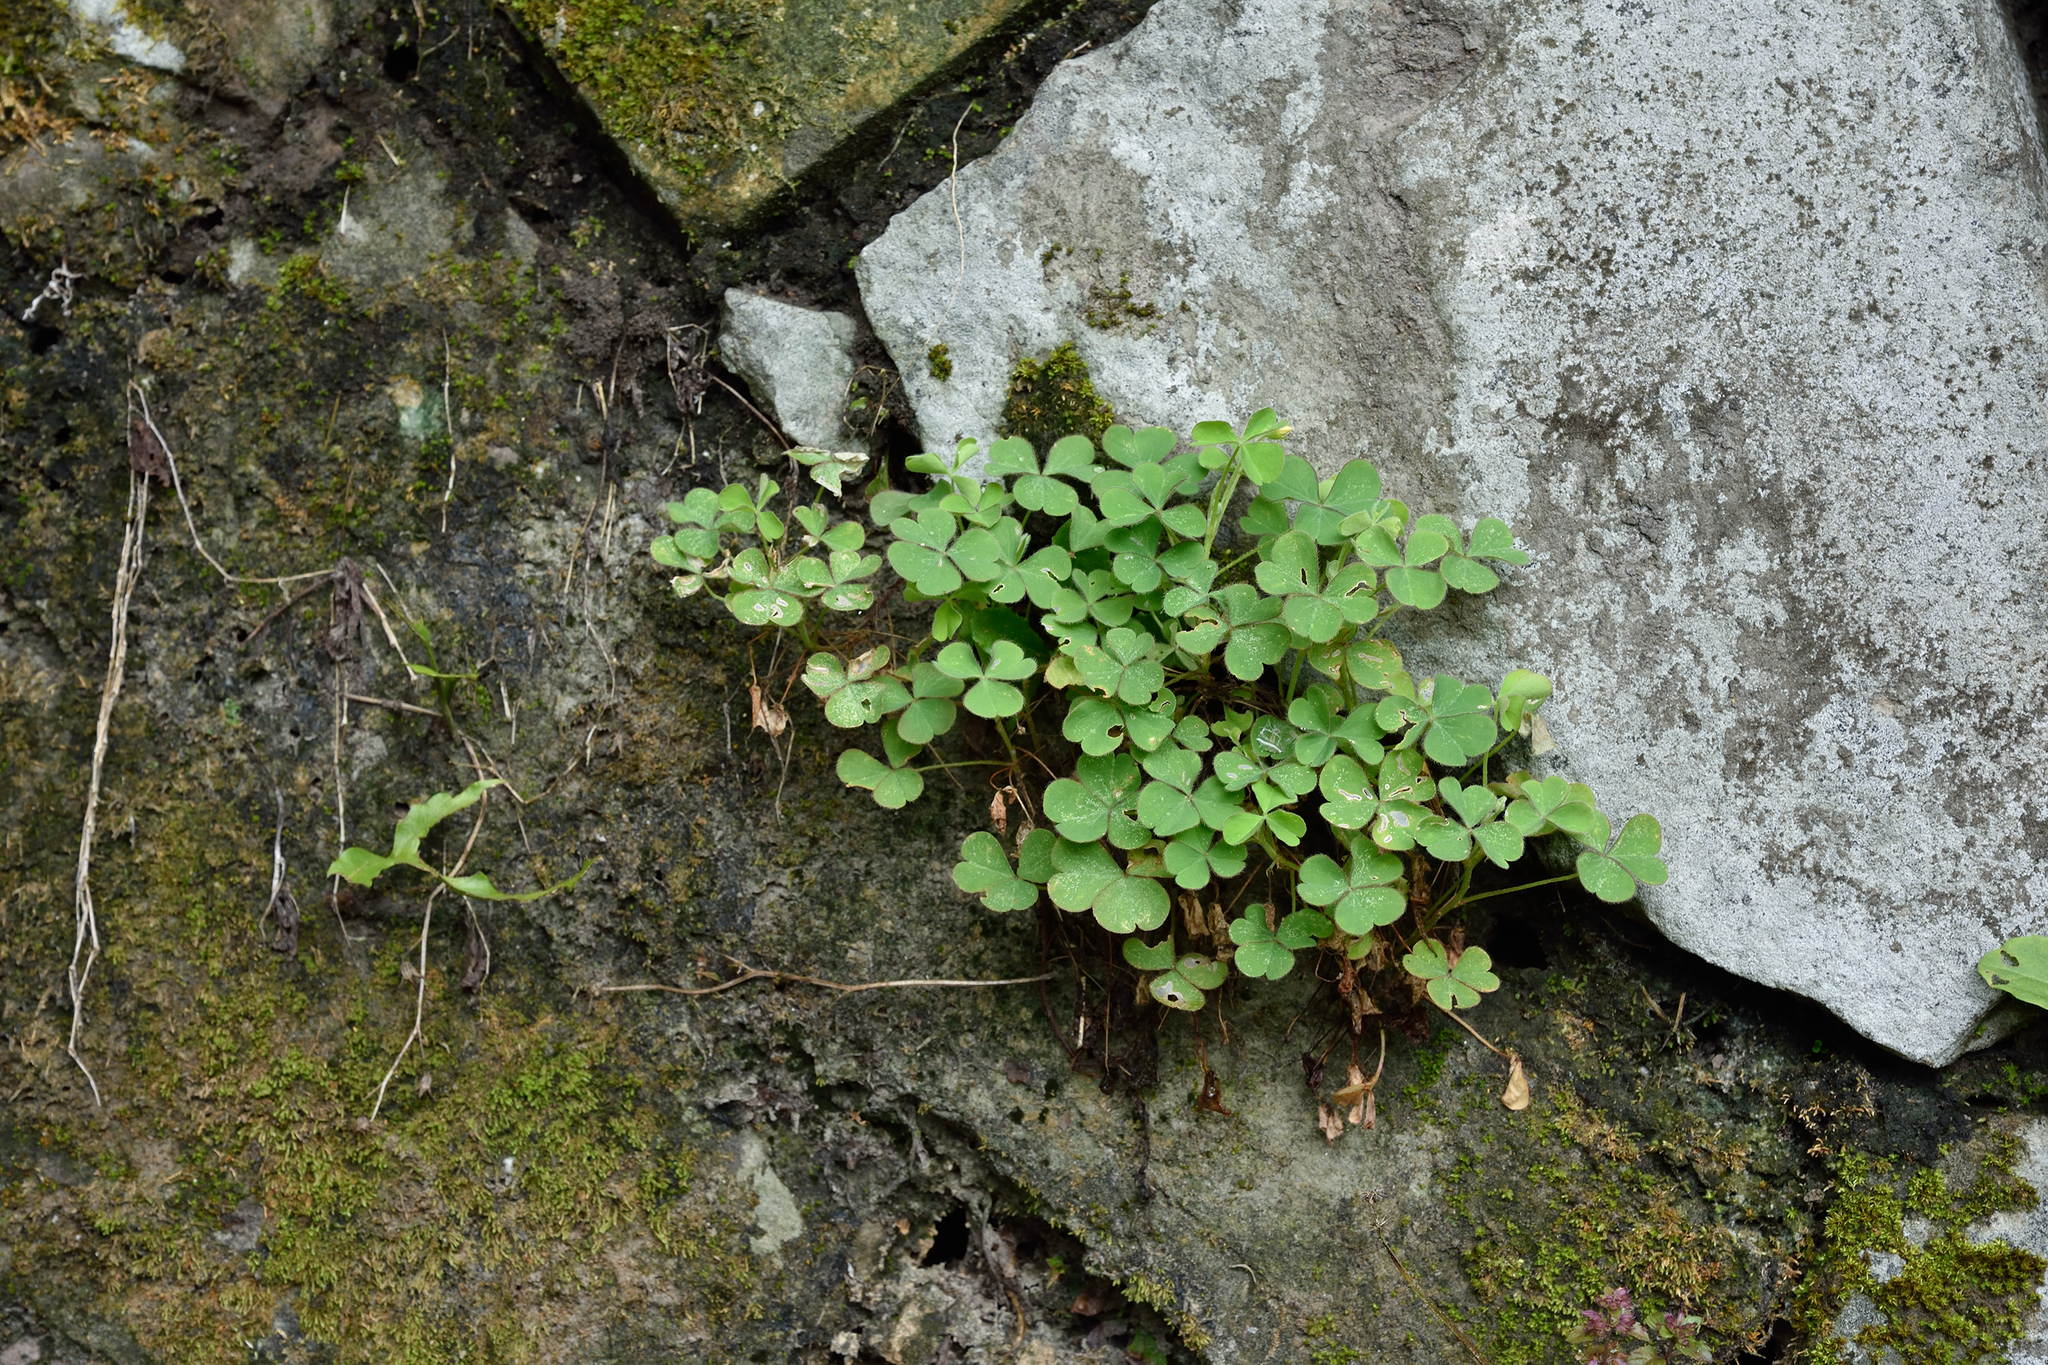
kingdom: Plantae
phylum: Tracheophyta
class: Magnoliopsida
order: Oxalidales
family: Oxalidaceae
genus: Oxalis
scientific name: Oxalis corniculata
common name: Procumbent yellow-sorrel
